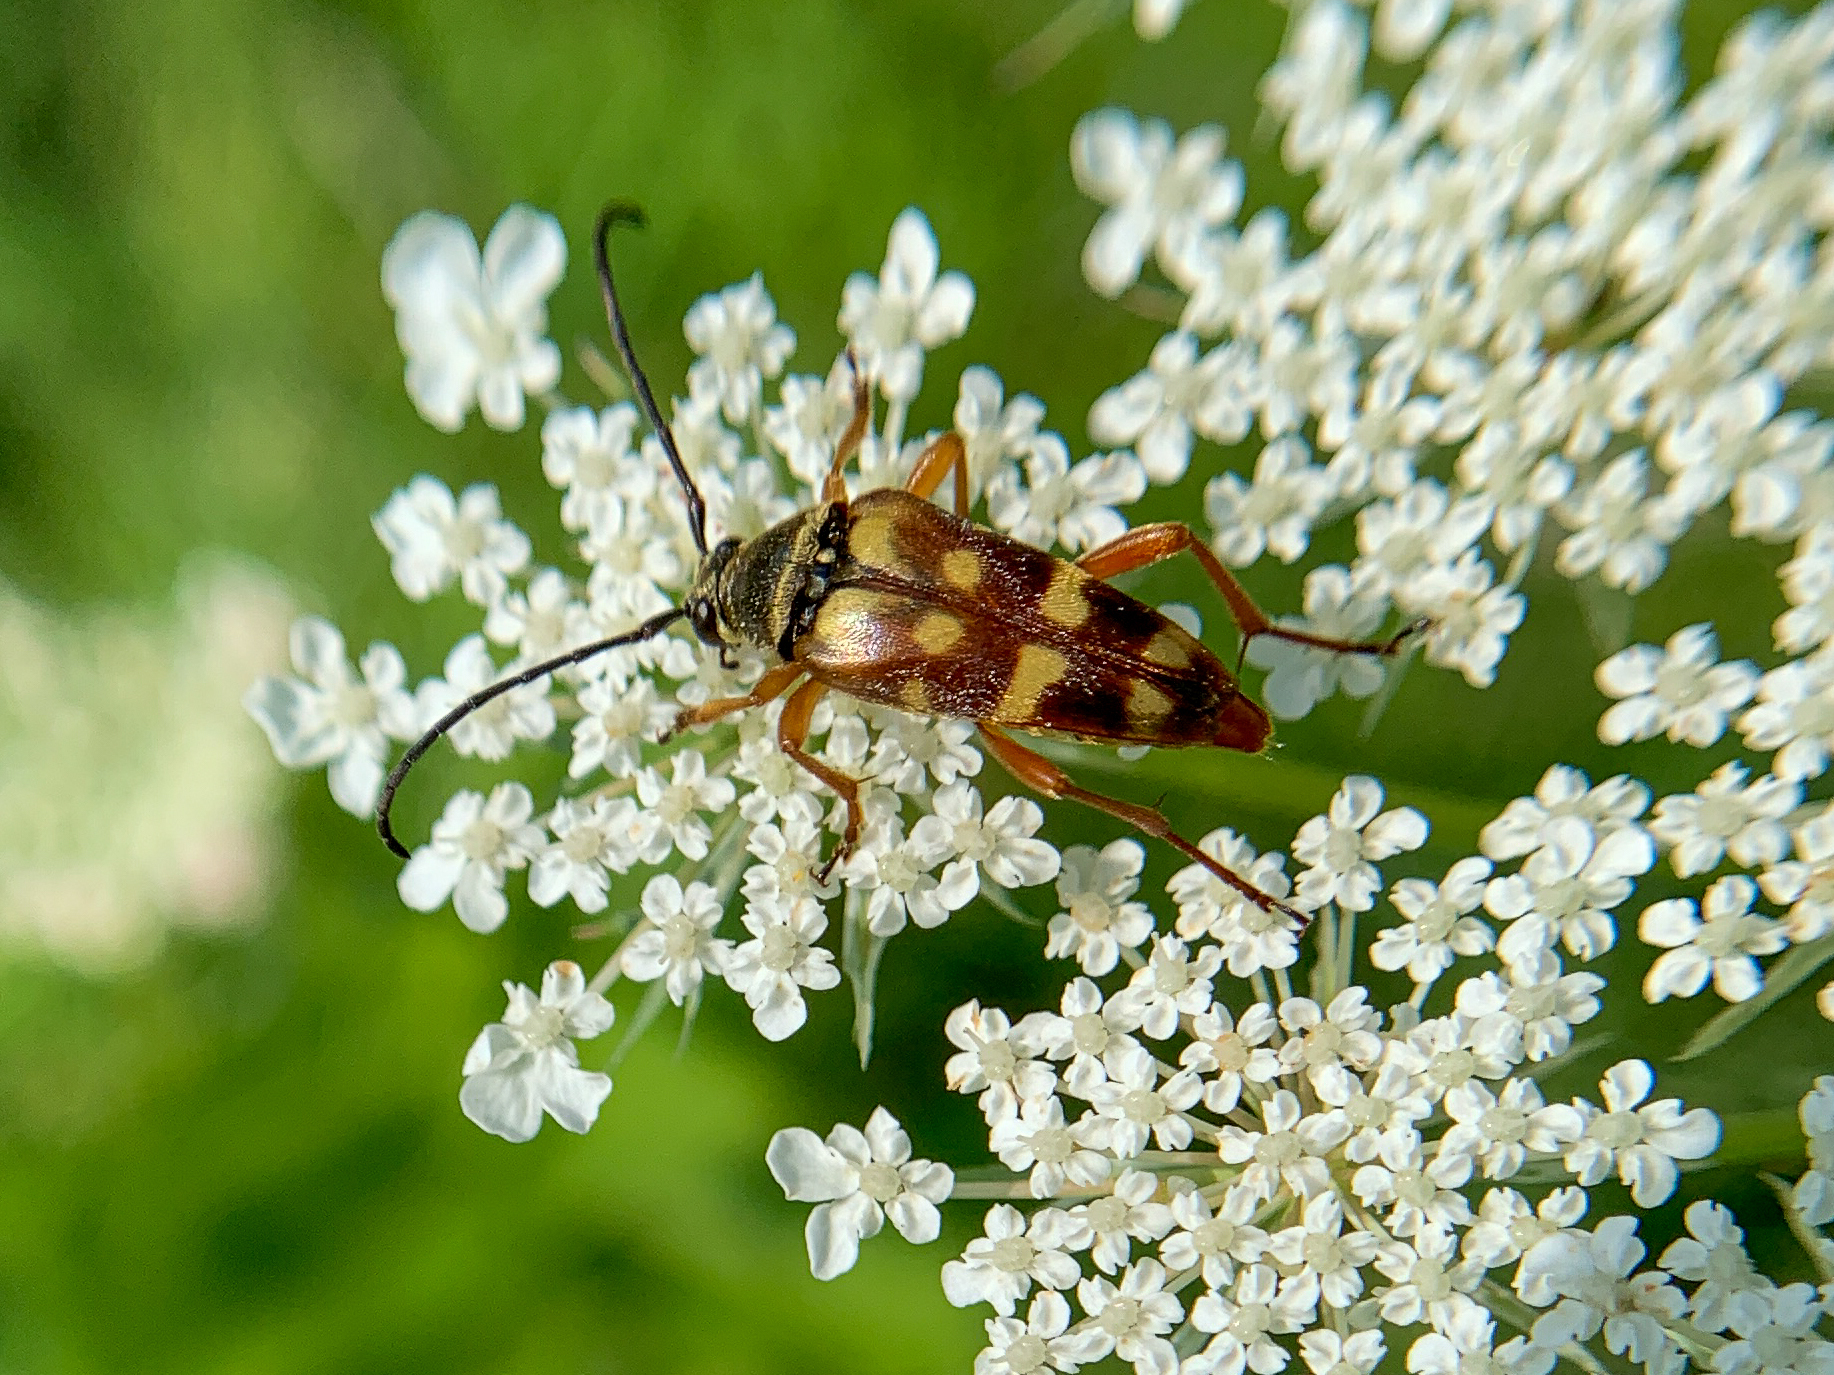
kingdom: Animalia
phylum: Arthropoda
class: Insecta
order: Coleoptera
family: Cerambycidae
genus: Typocerus
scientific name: Typocerus velutinus
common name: Banded longhorn beetle
